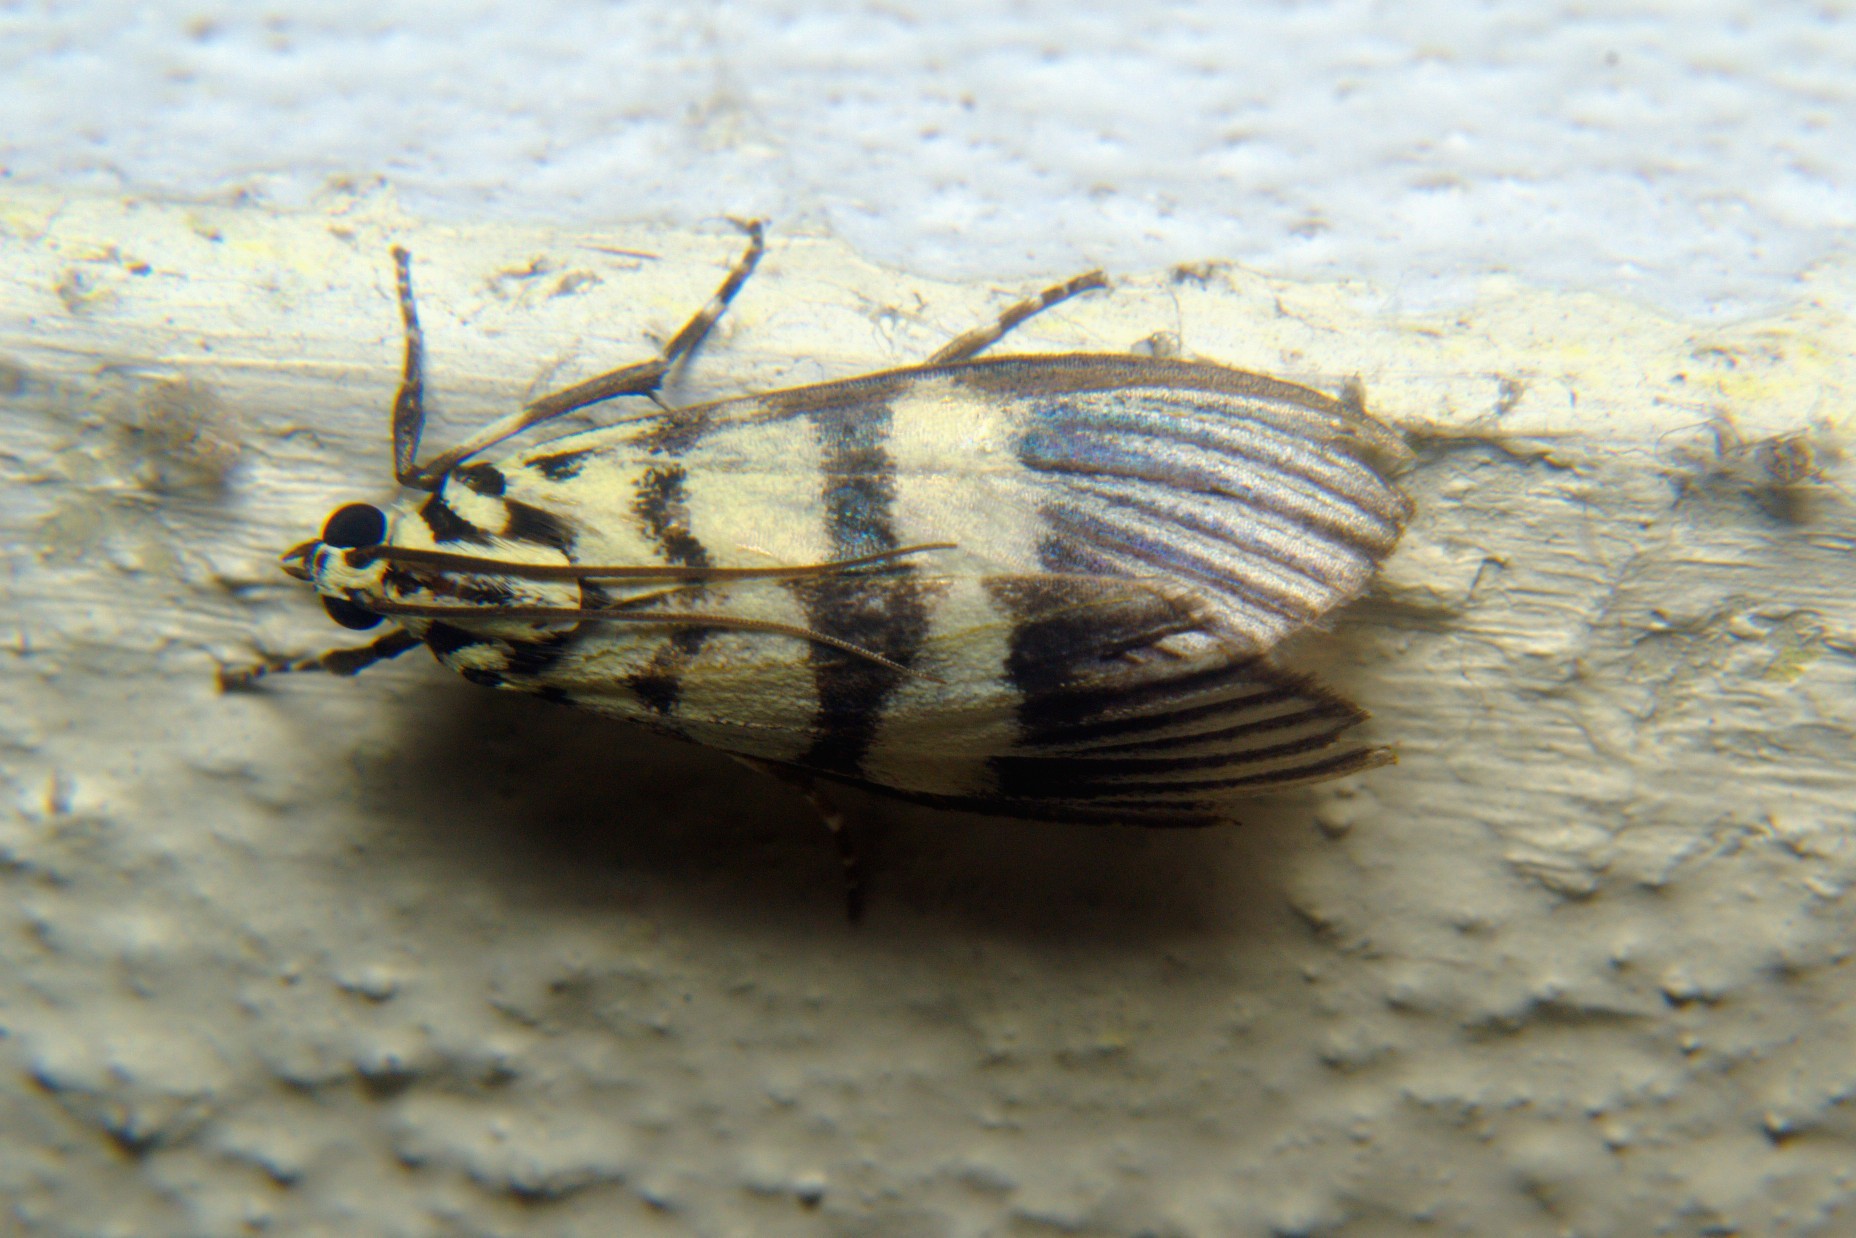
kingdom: Animalia
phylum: Arthropoda
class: Insecta
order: Lepidoptera
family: Crambidae
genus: Heortia
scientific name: Heortia vitessoides
